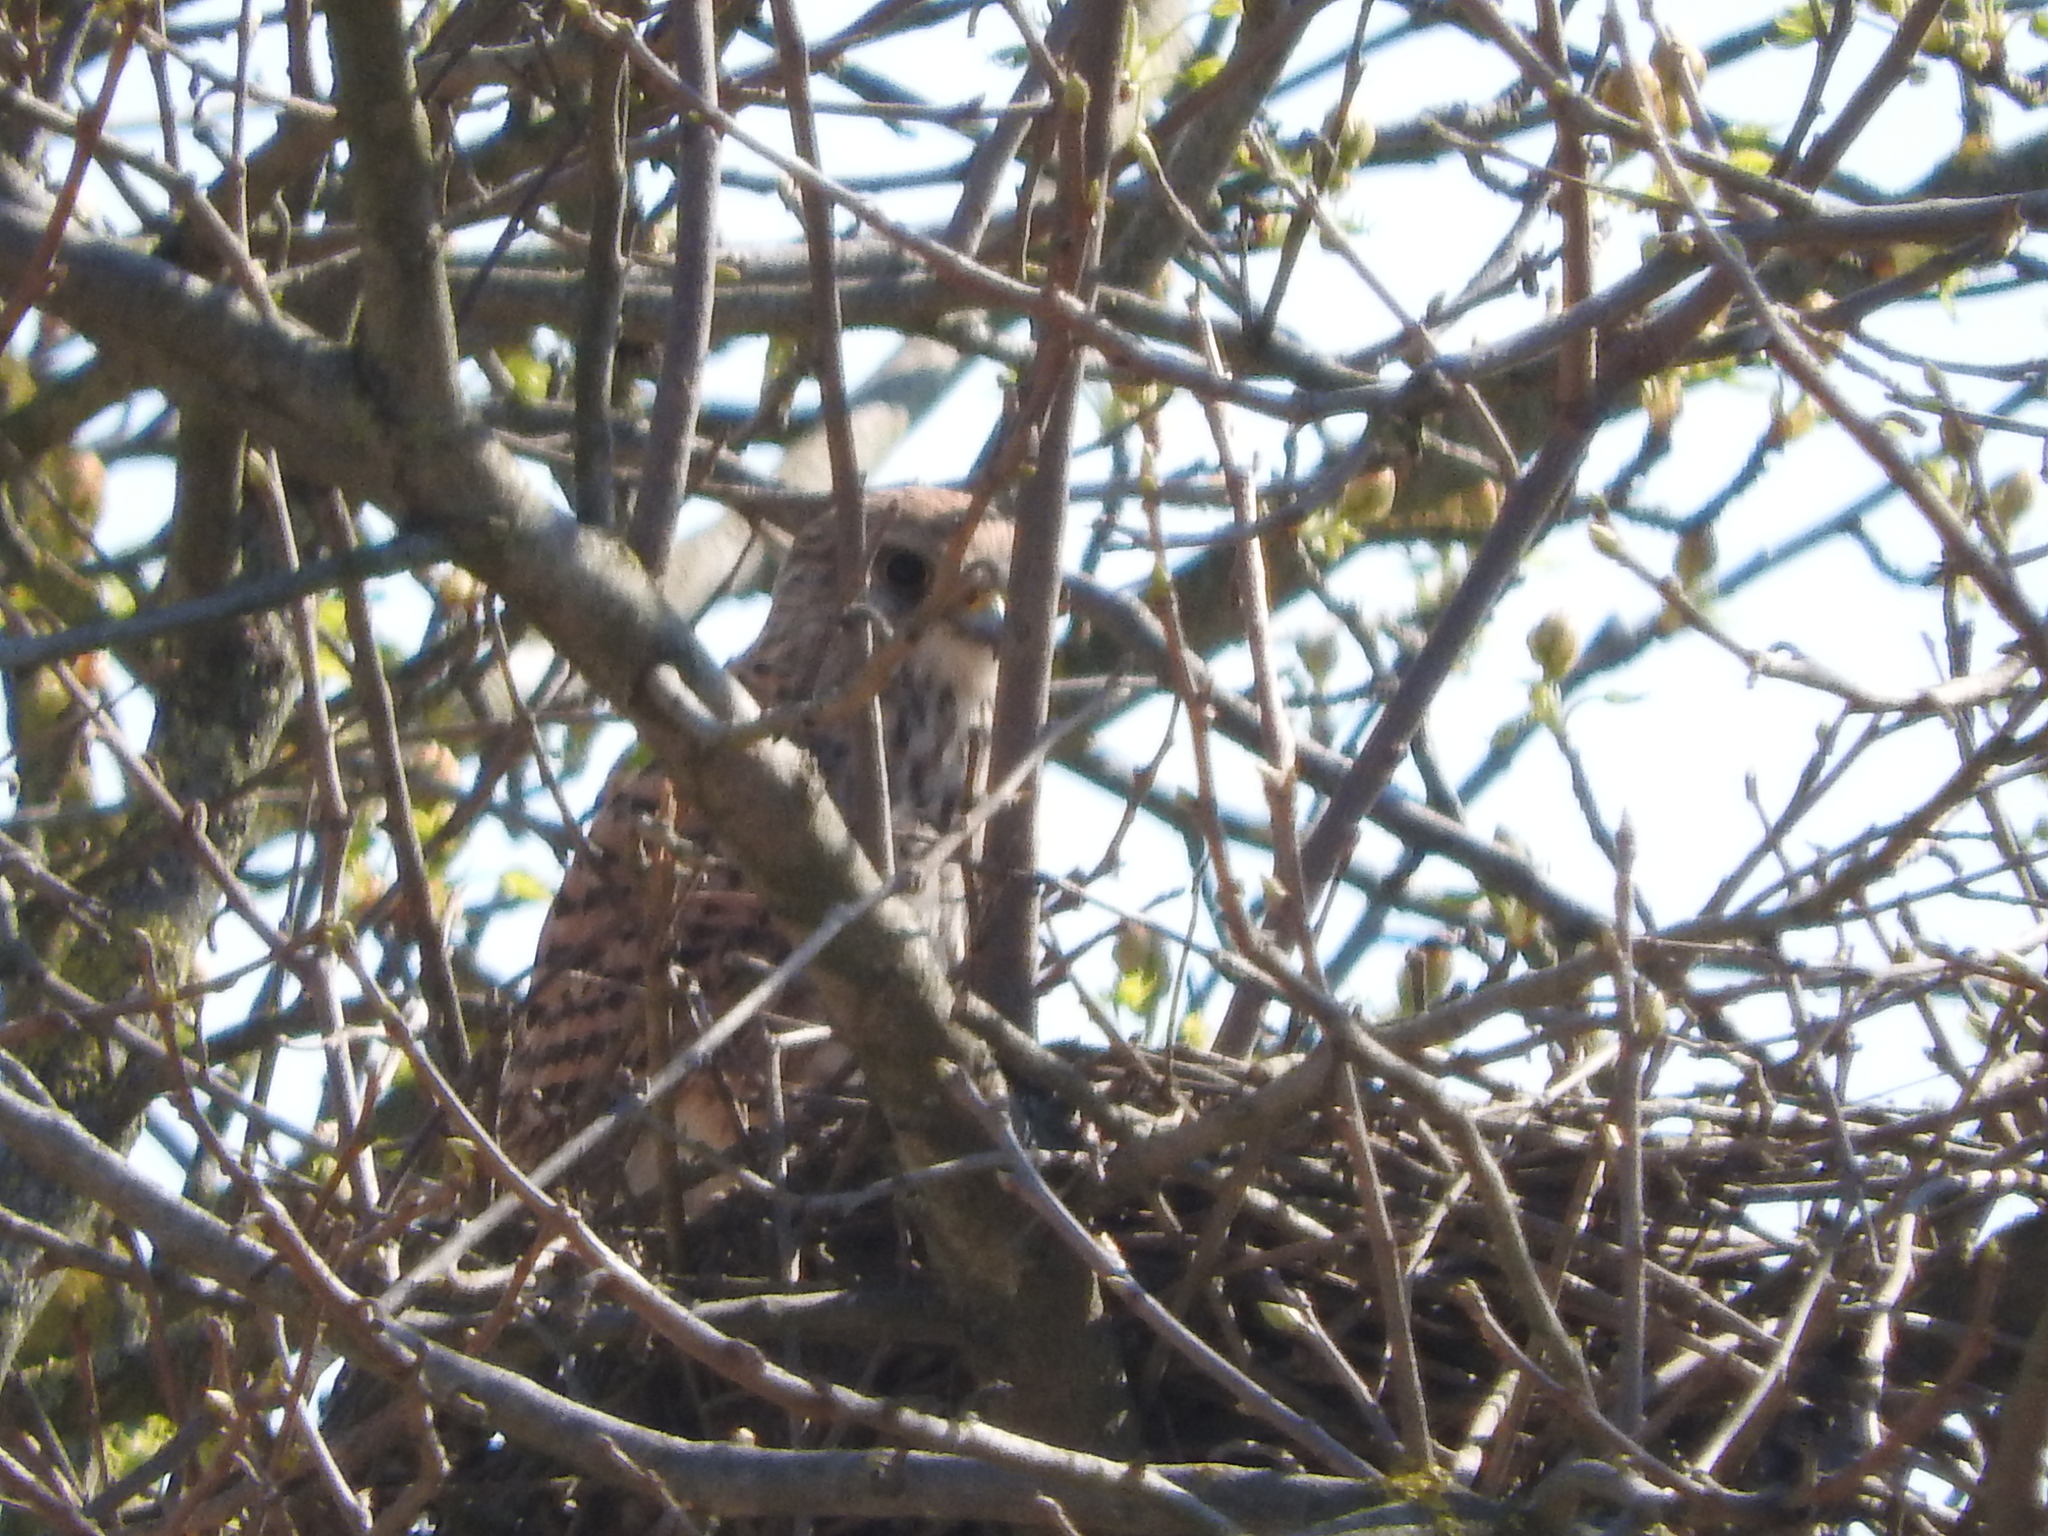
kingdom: Animalia
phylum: Chordata
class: Aves
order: Falconiformes
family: Falconidae
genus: Falco
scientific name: Falco tinnunculus
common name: Common kestrel
